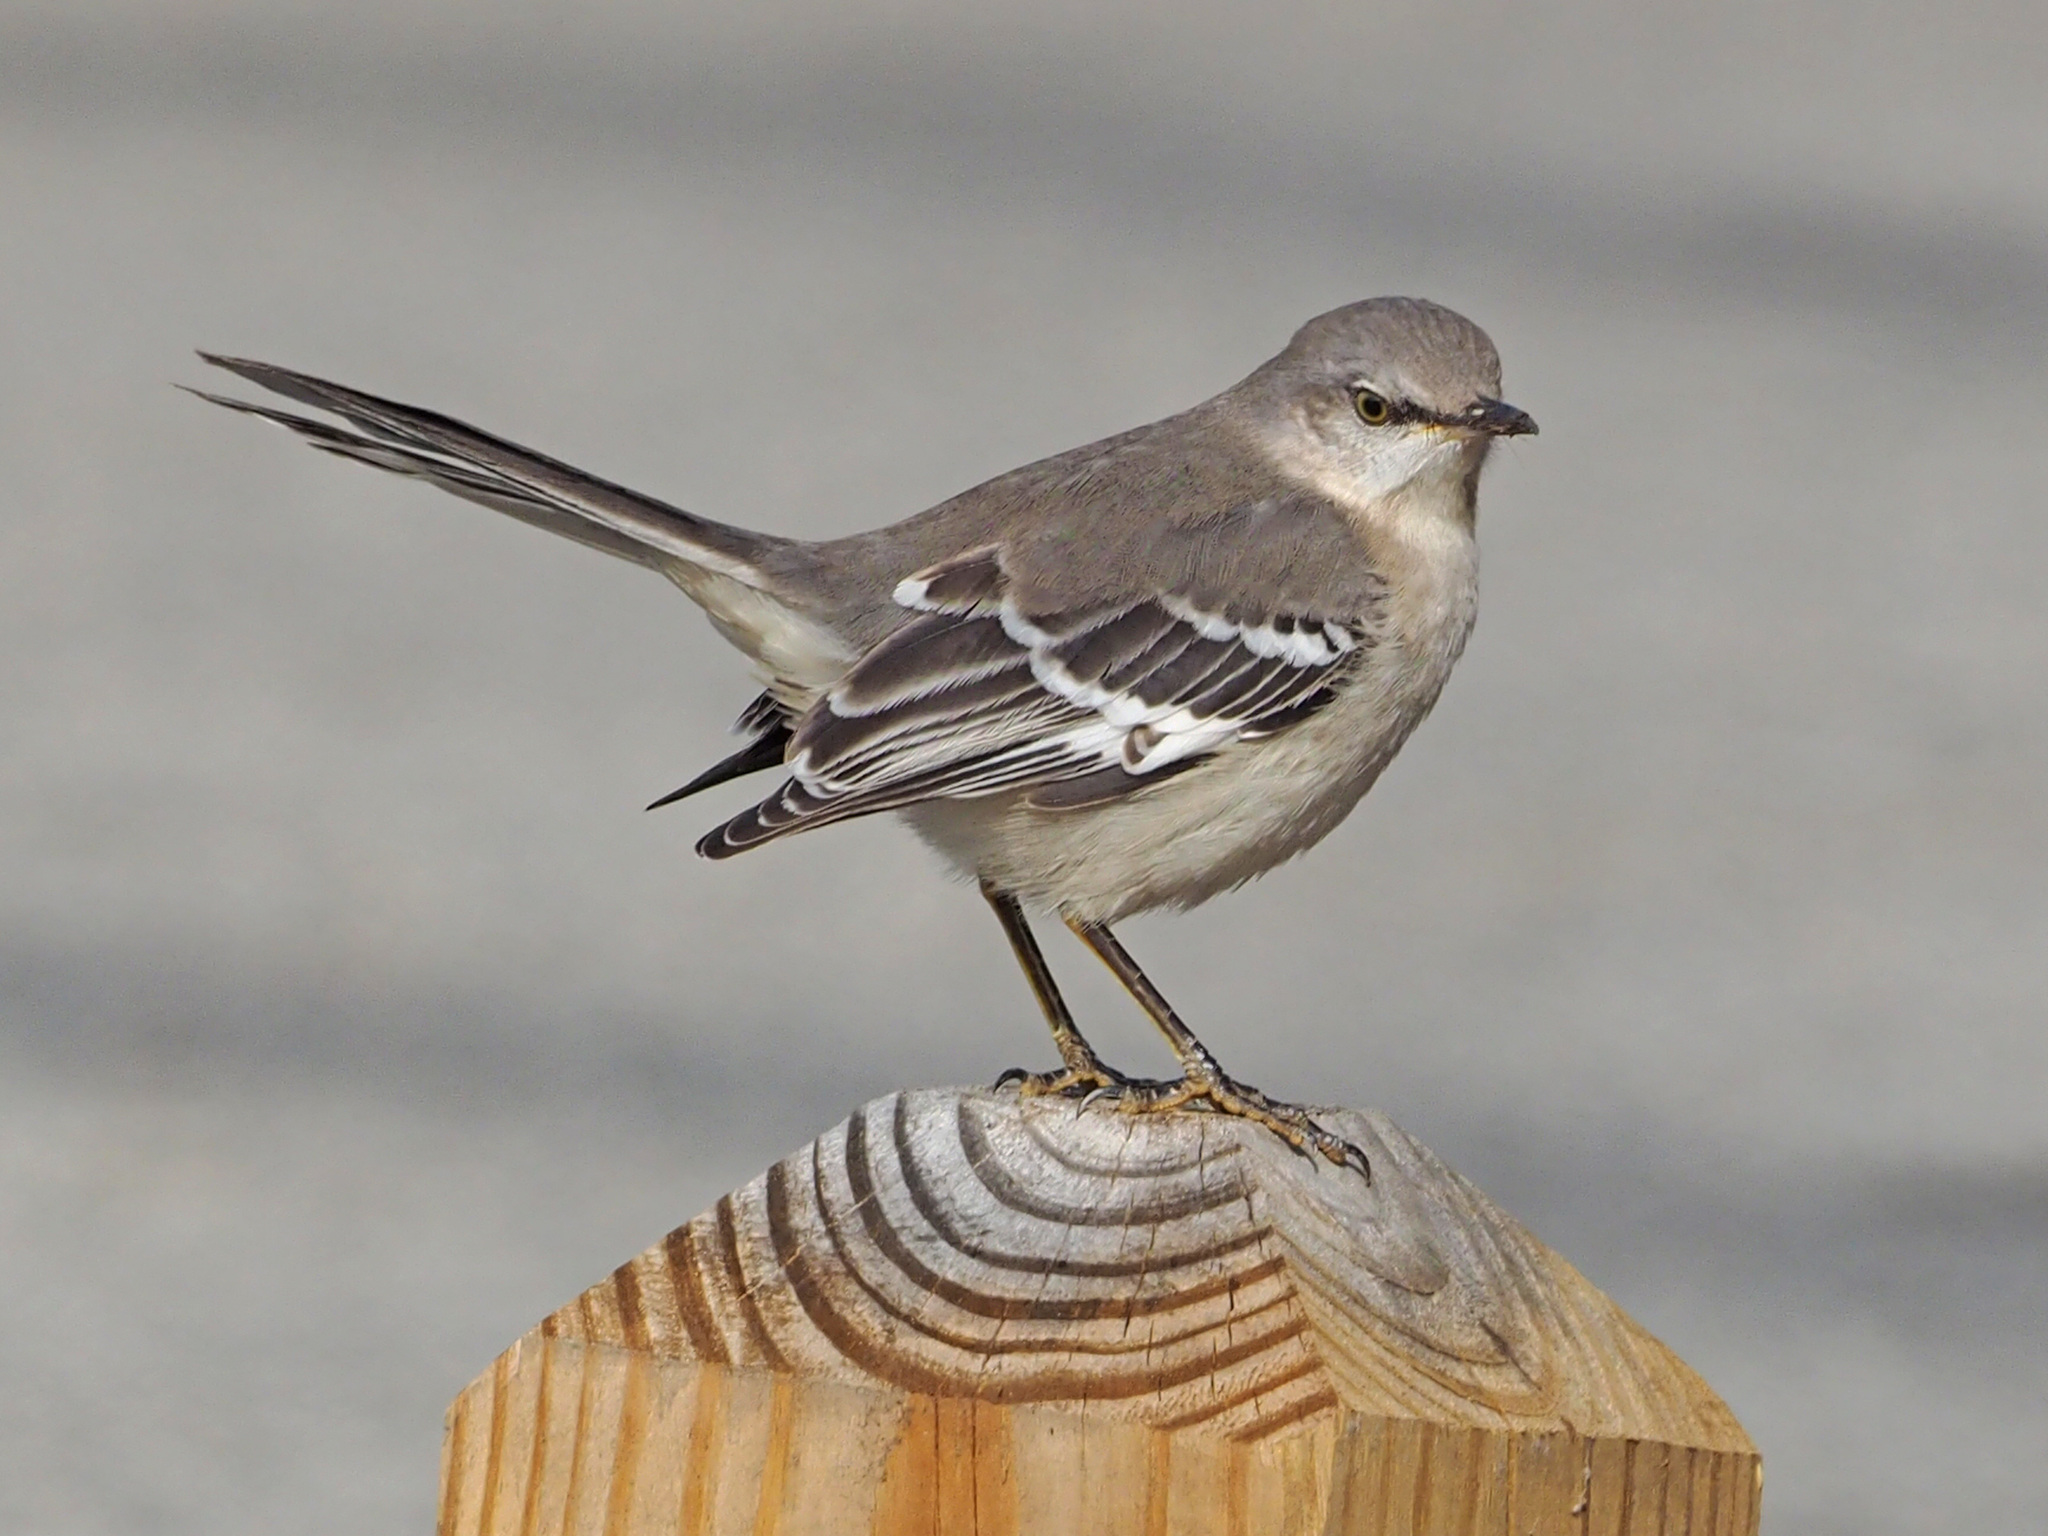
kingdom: Animalia
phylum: Chordata
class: Aves
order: Passeriformes
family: Mimidae
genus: Mimus
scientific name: Mimus polyglottos
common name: Northern mockingbird
